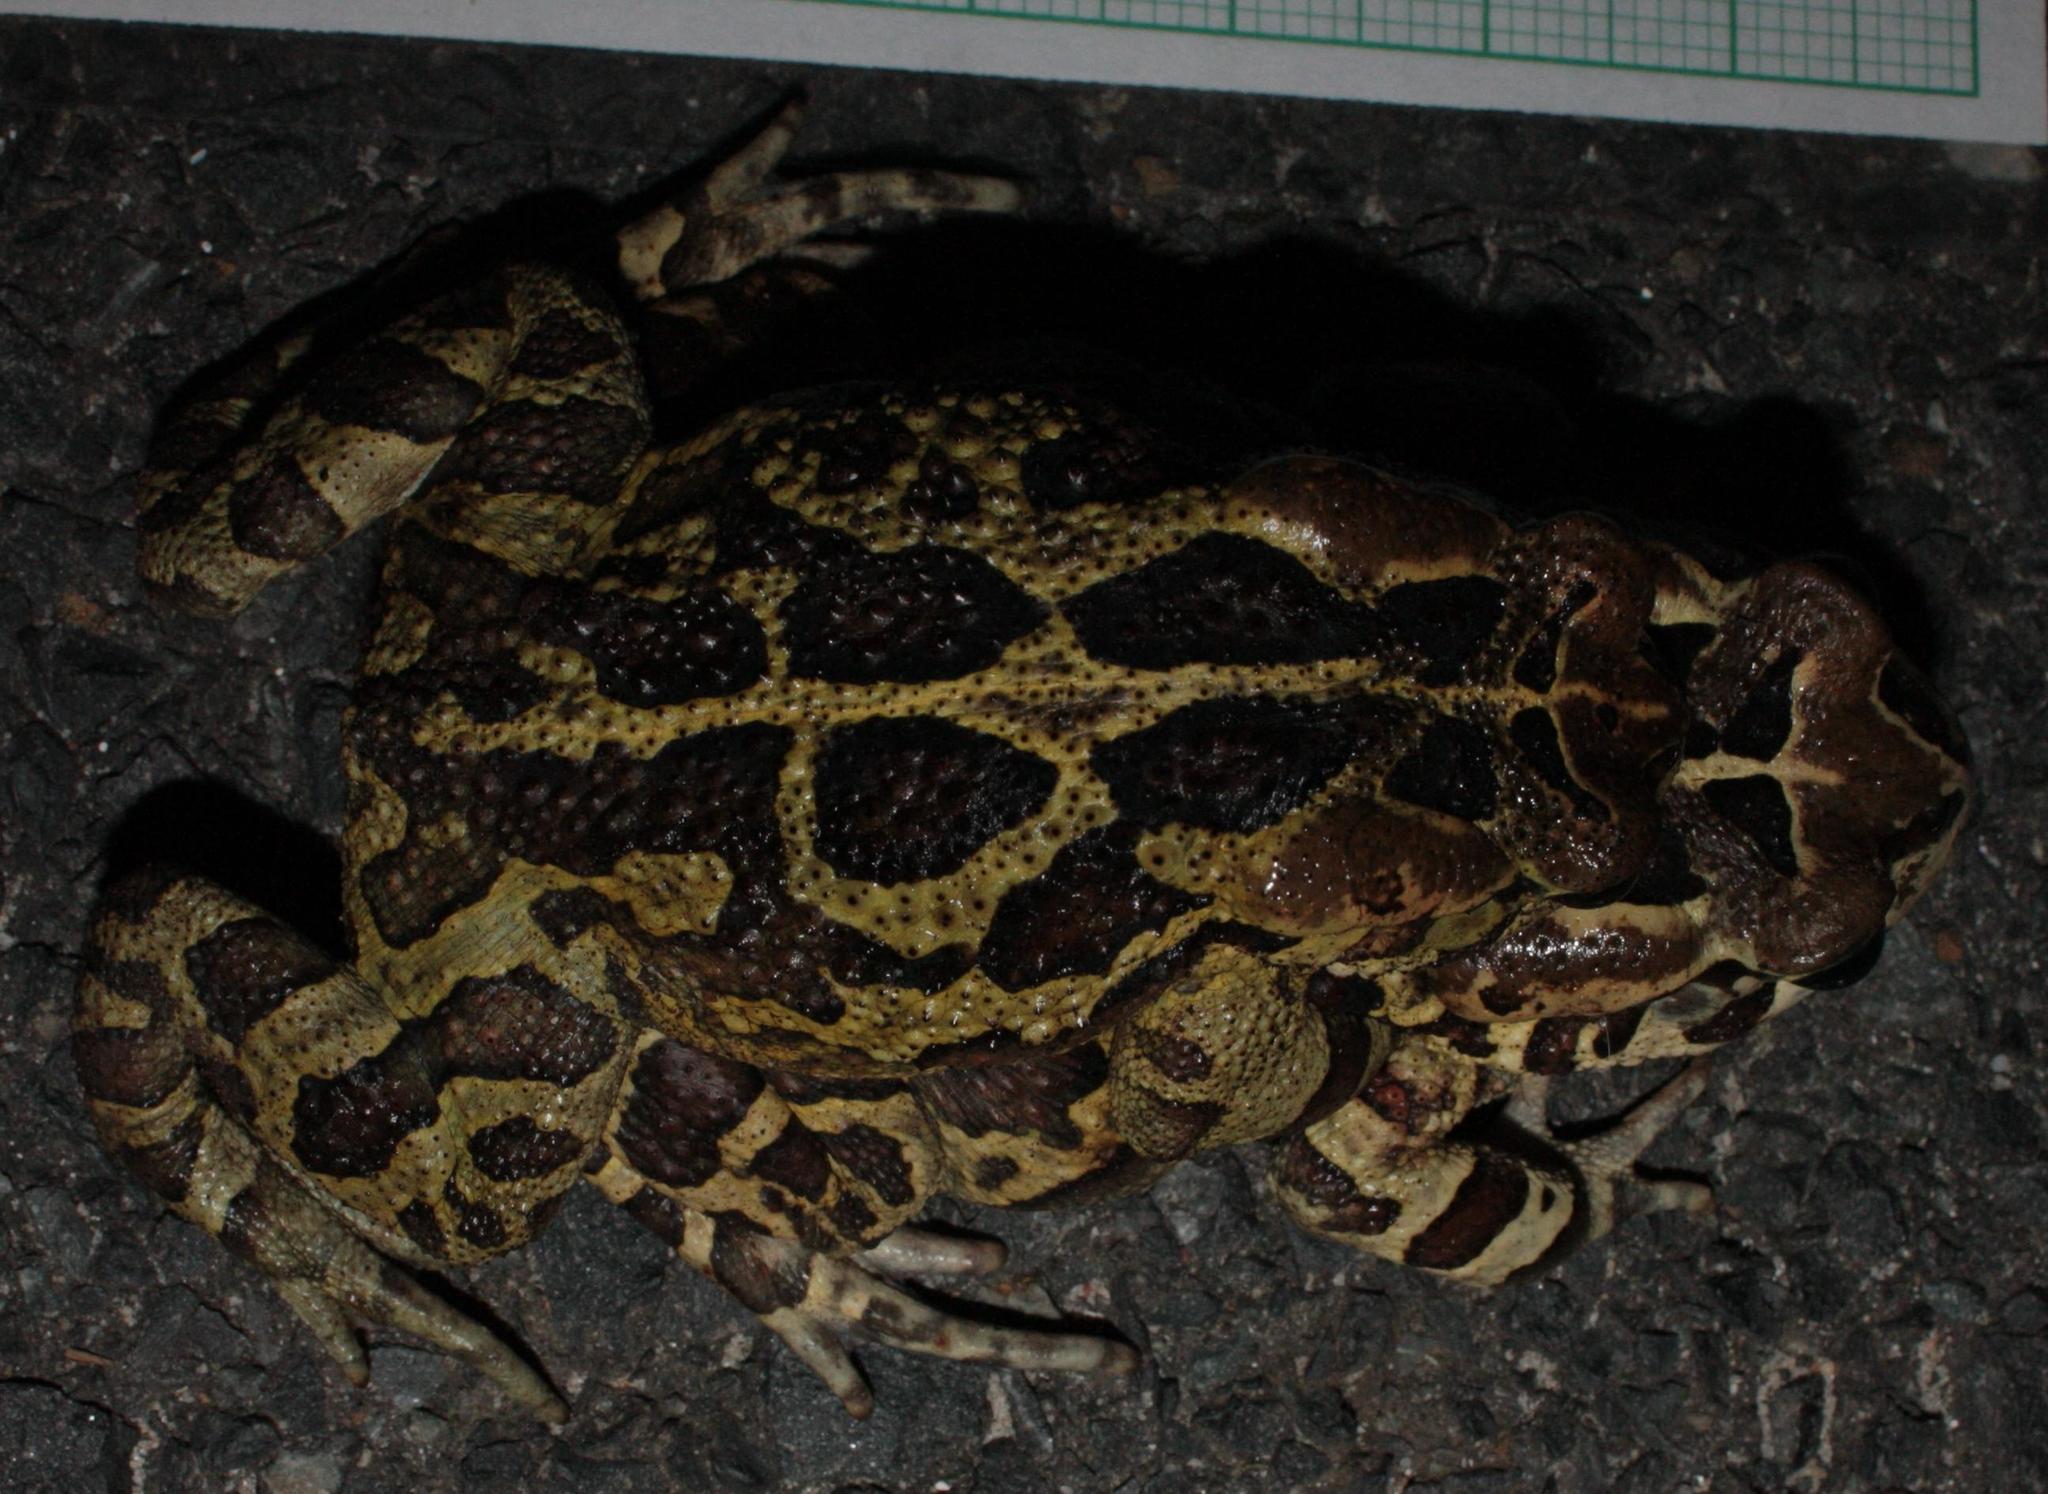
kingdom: Animalia
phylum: Chordata
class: Amphibia
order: Anura
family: Bufonidae
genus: Sclerophrys
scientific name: Sclerophrys pantherina
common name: Panther toad
